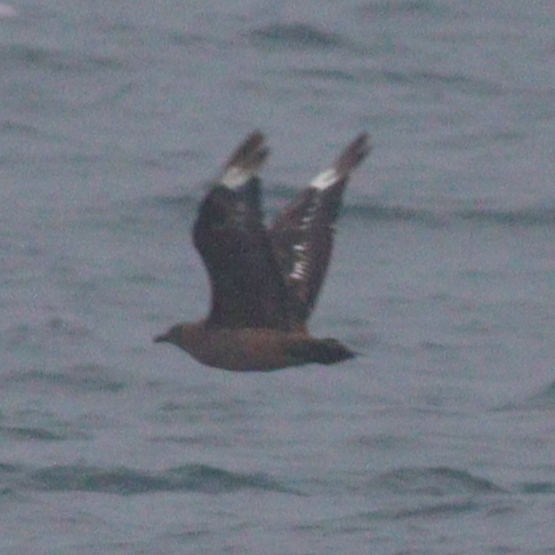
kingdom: Animalia
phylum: Chordata
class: Aves
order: Charadriiformes
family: Stercorariidae
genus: Stercorarius
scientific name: Stercorarius skua
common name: Great skua
